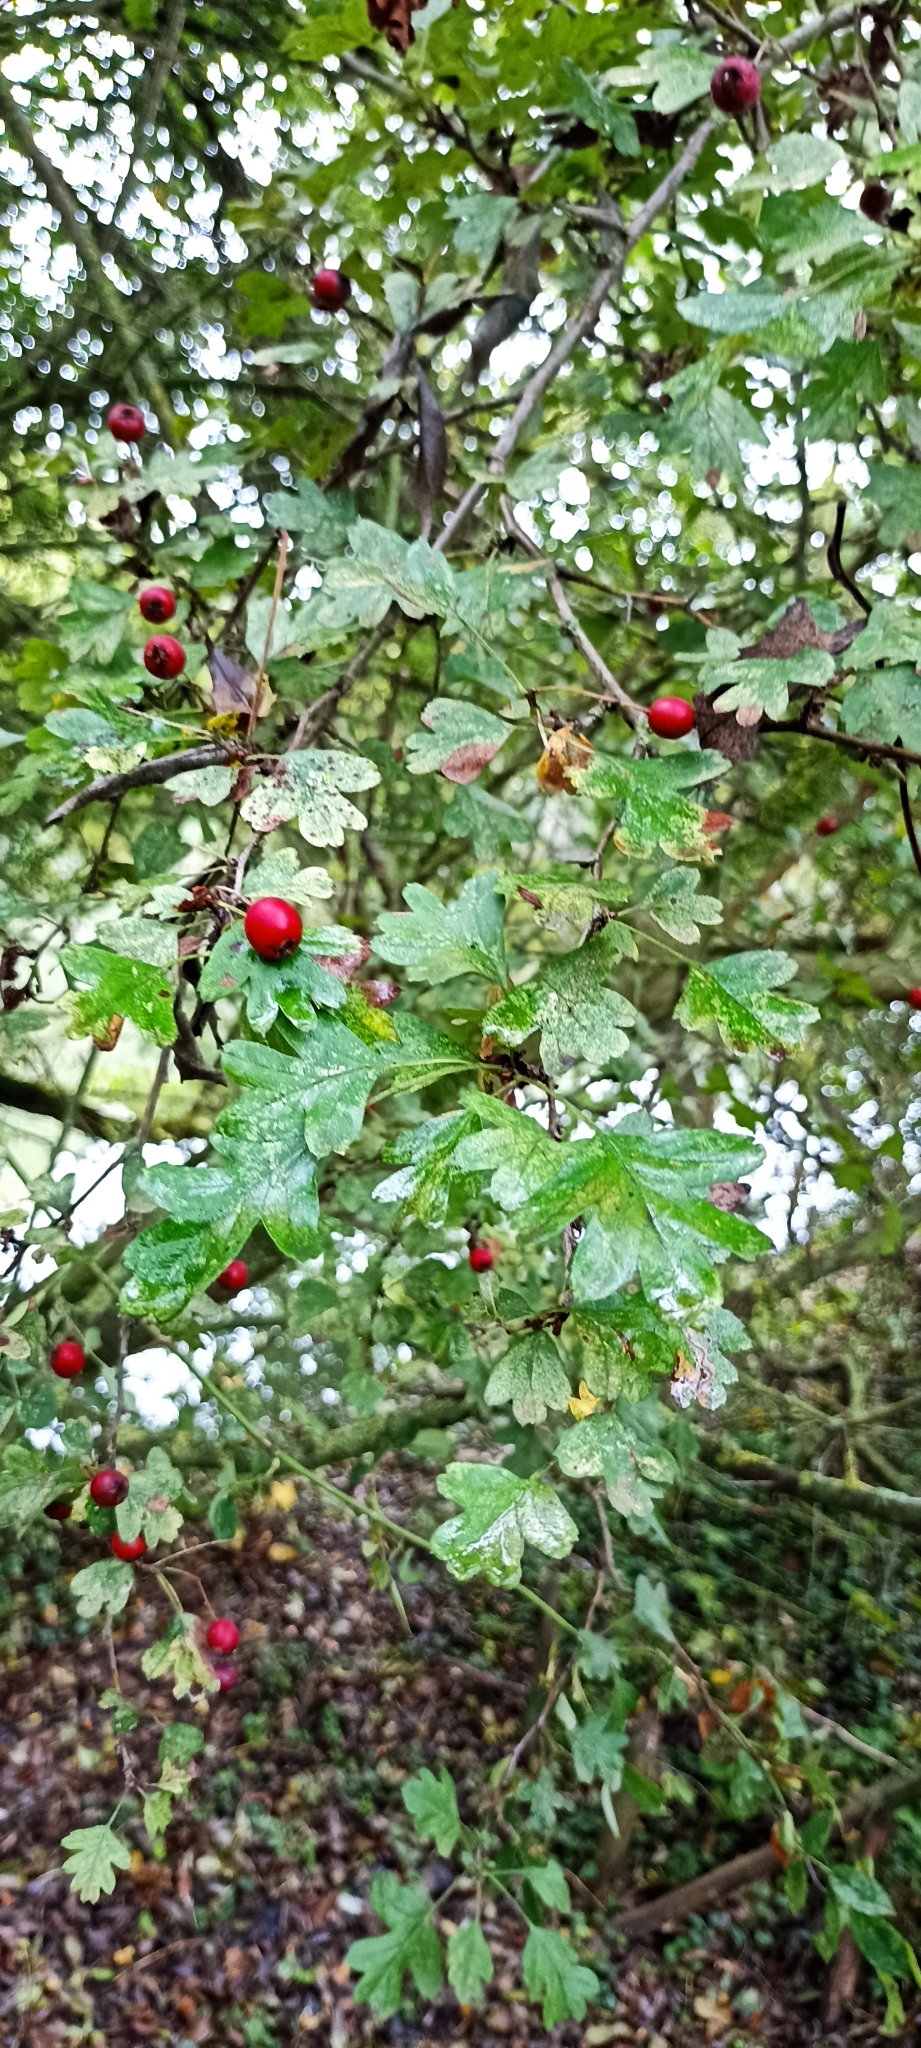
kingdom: Plantae
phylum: Tracheophyta
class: Magnoliopsida
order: Rosales
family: Rosaceae
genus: Crataegus
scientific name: Crataegus monogyna
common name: Hawthorn
